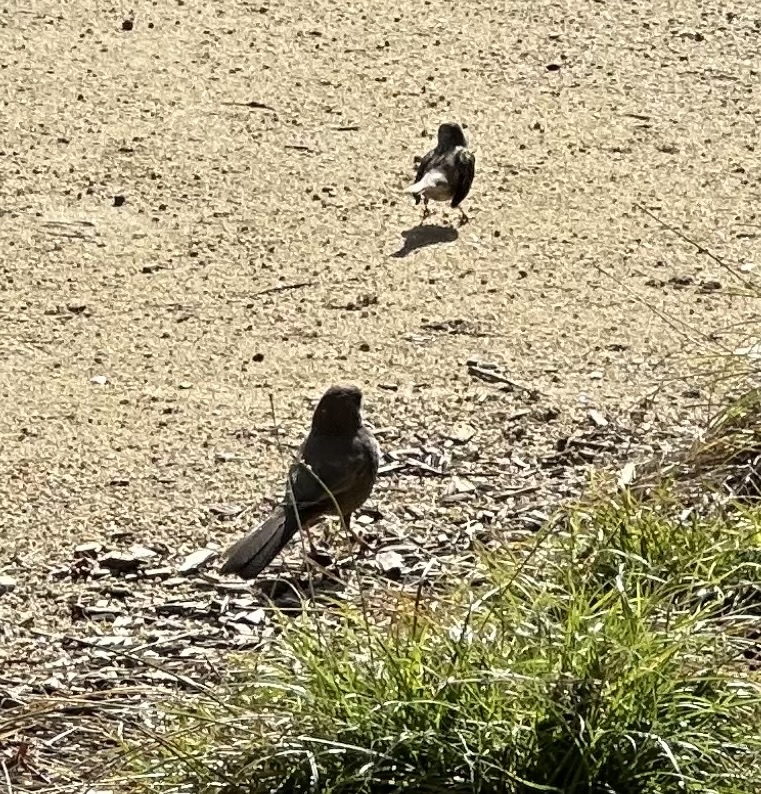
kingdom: Animalia
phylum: Chordata
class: Aves
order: Passeriformes
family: Passerellidae
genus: Melozone
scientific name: Melozone crissalis
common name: California towhee
